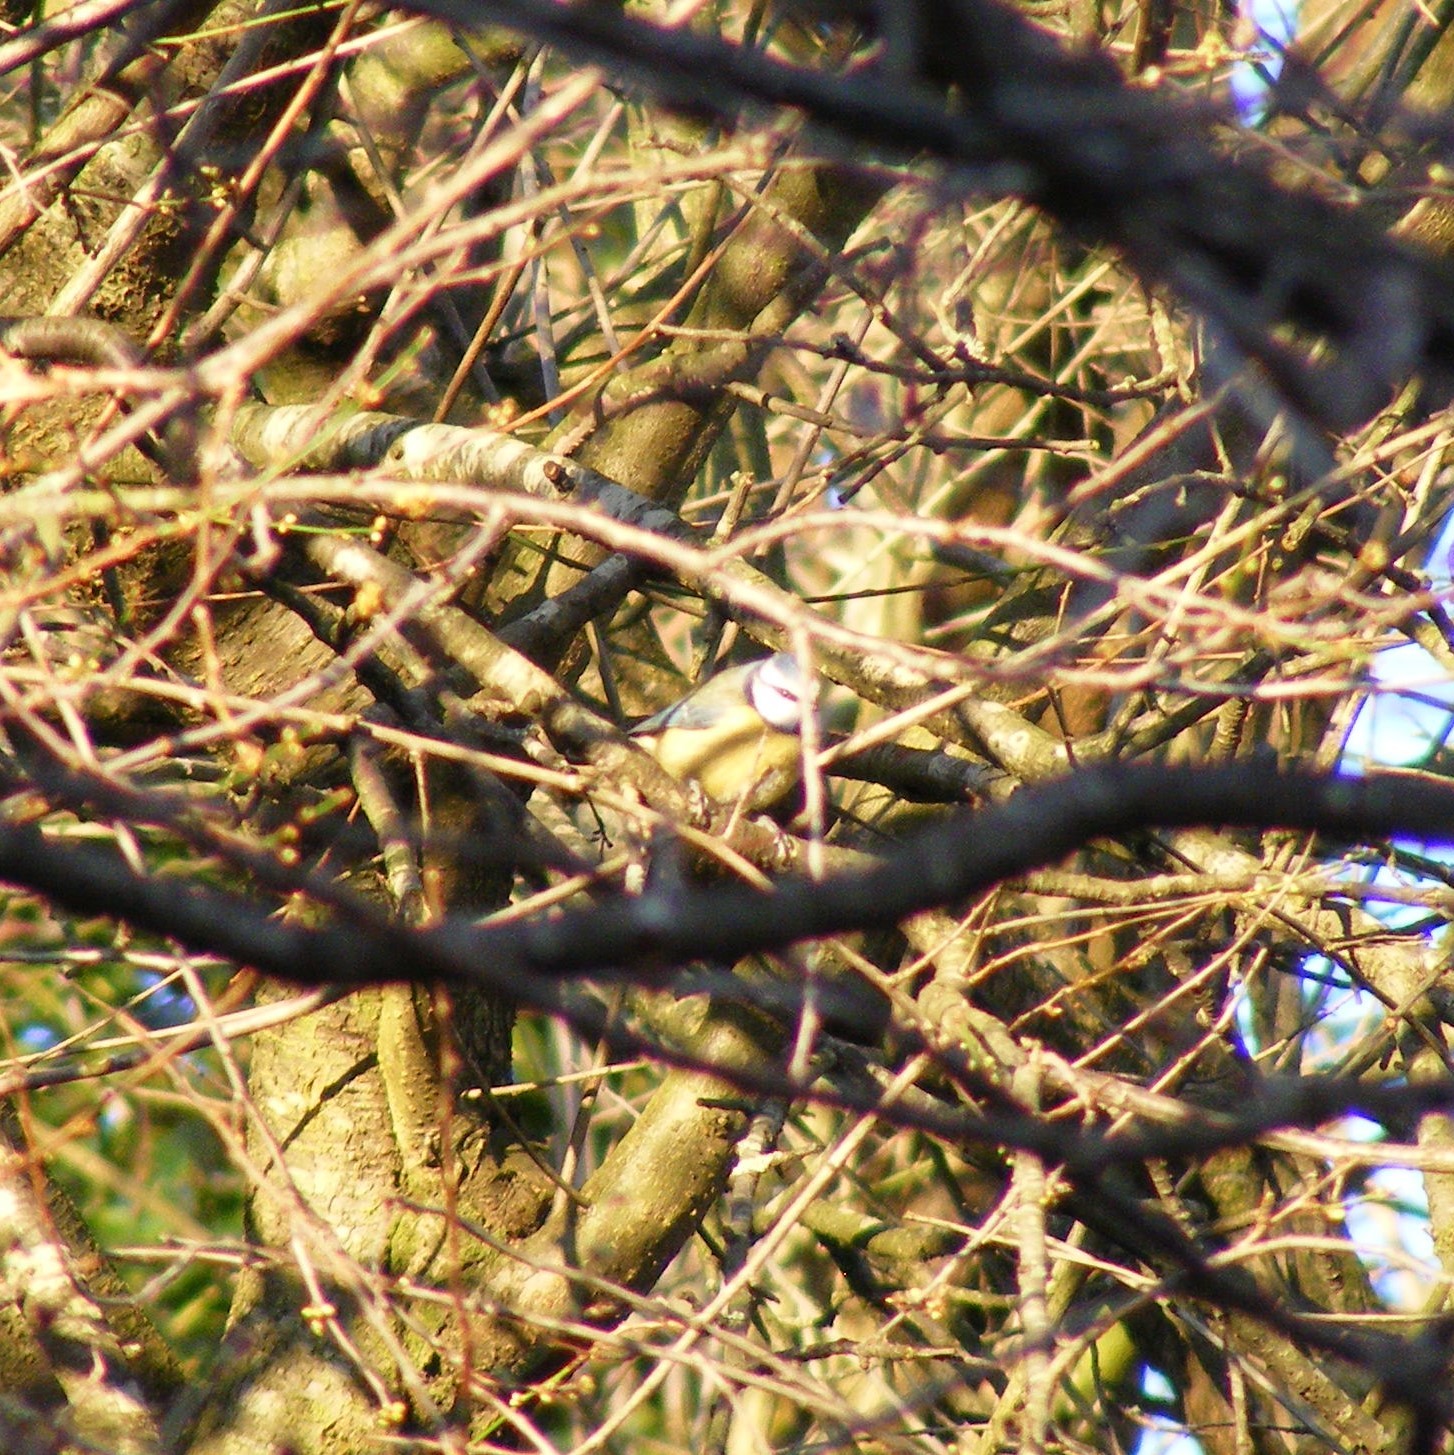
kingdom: Animalia
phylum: Chordata
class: Aves
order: Passeriformes
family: Paridae
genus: Cyanistes
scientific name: Cyanistes caeruleus
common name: Eurasian blue tit
